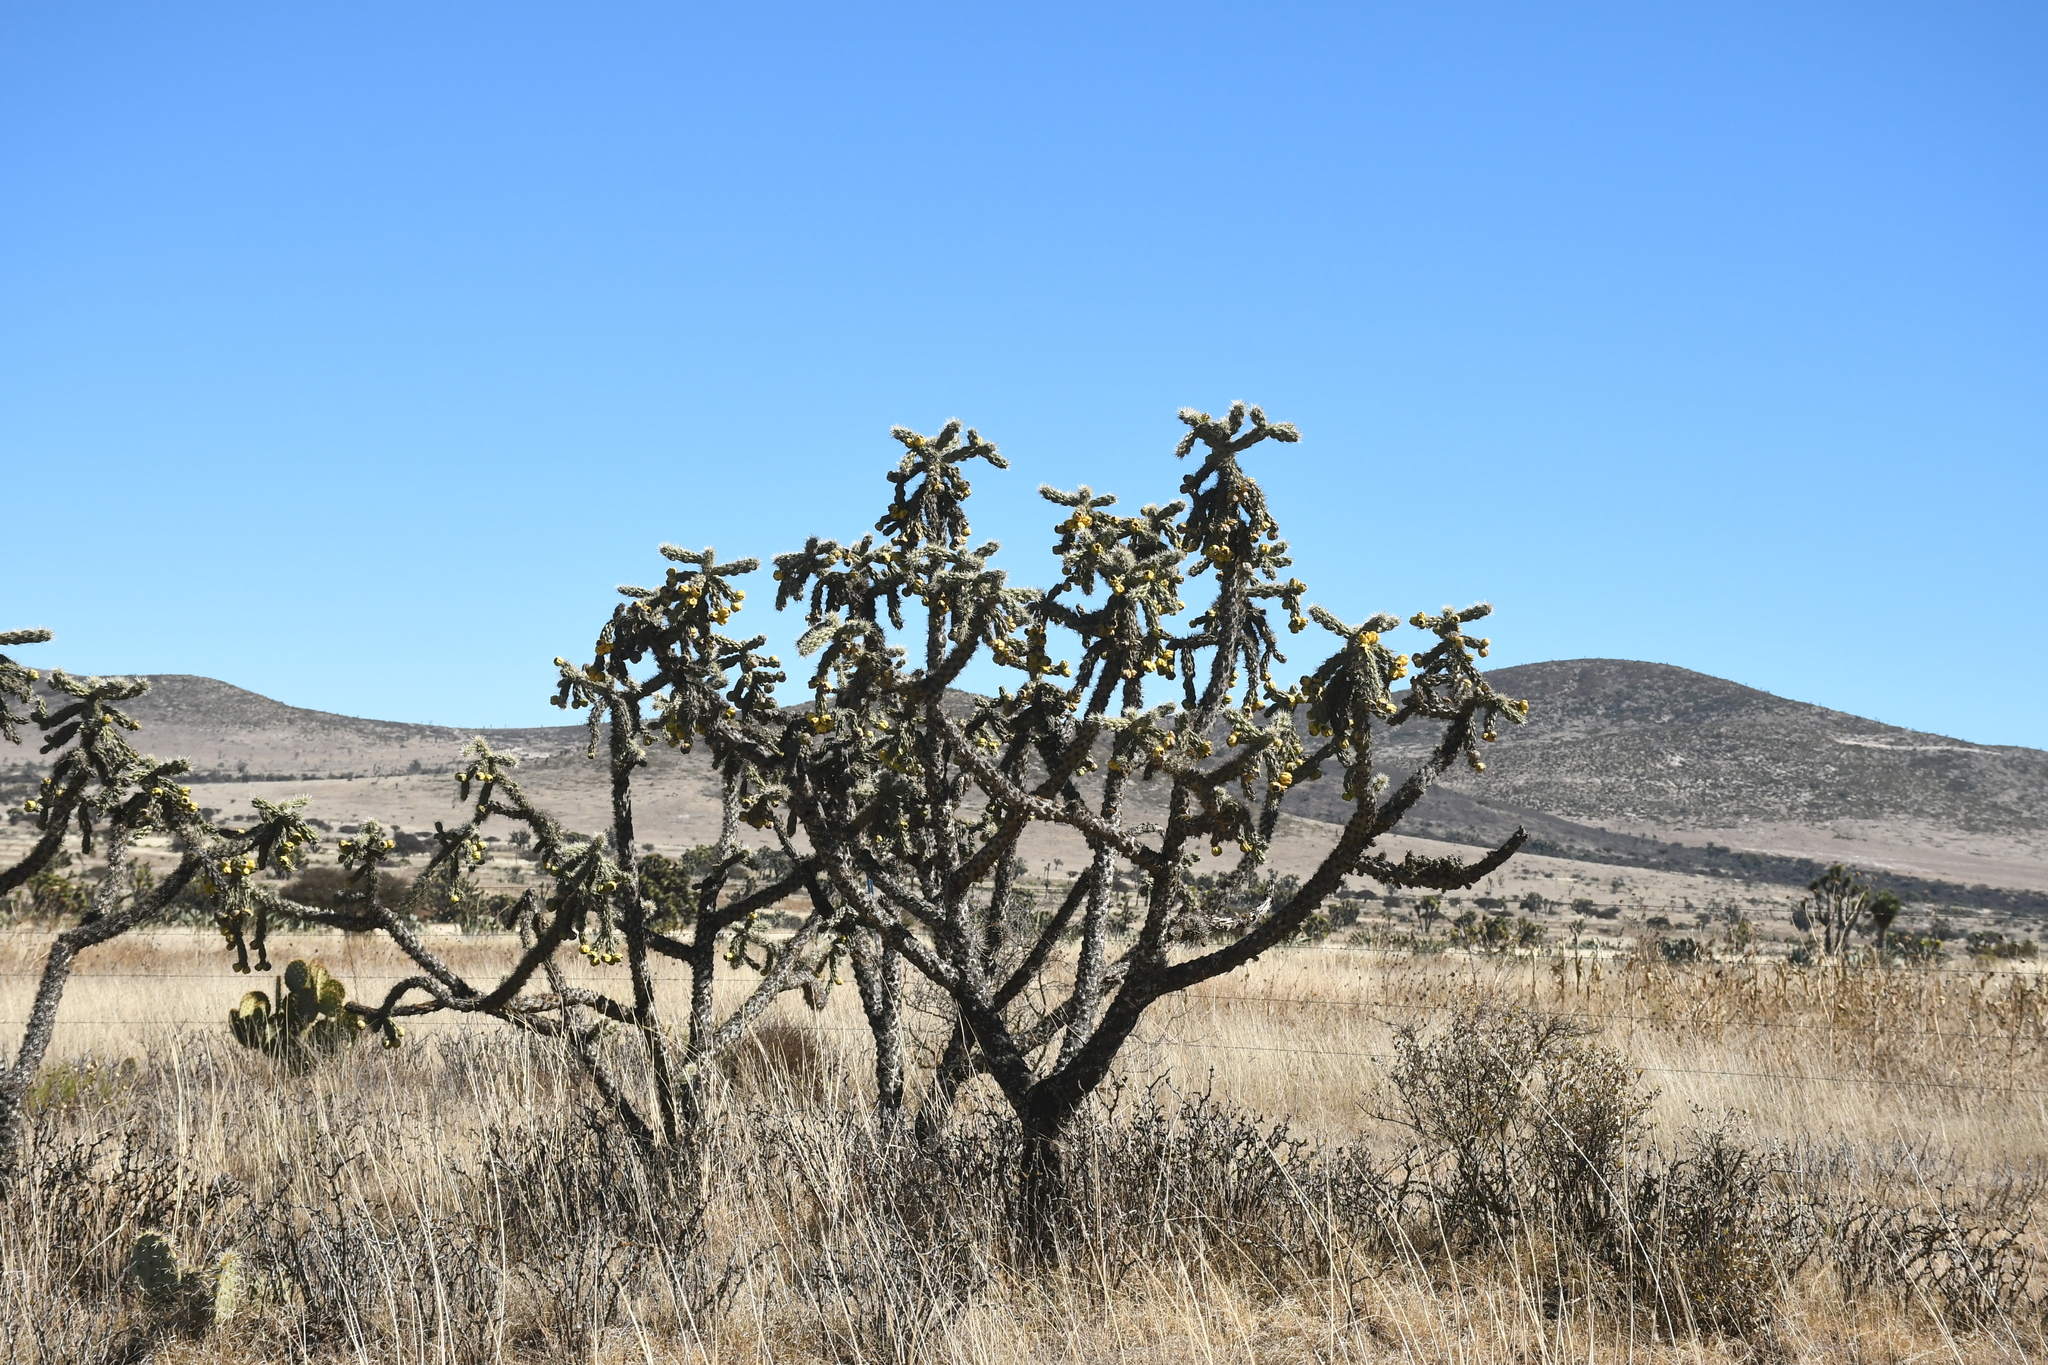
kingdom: Plantae
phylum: Tracheophyta
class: Magnoliopsida
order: Caryophyllales
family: Cactaceae
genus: Cylindropuntia
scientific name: Cylindropuntia imbricata
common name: Candelabrum cactus
